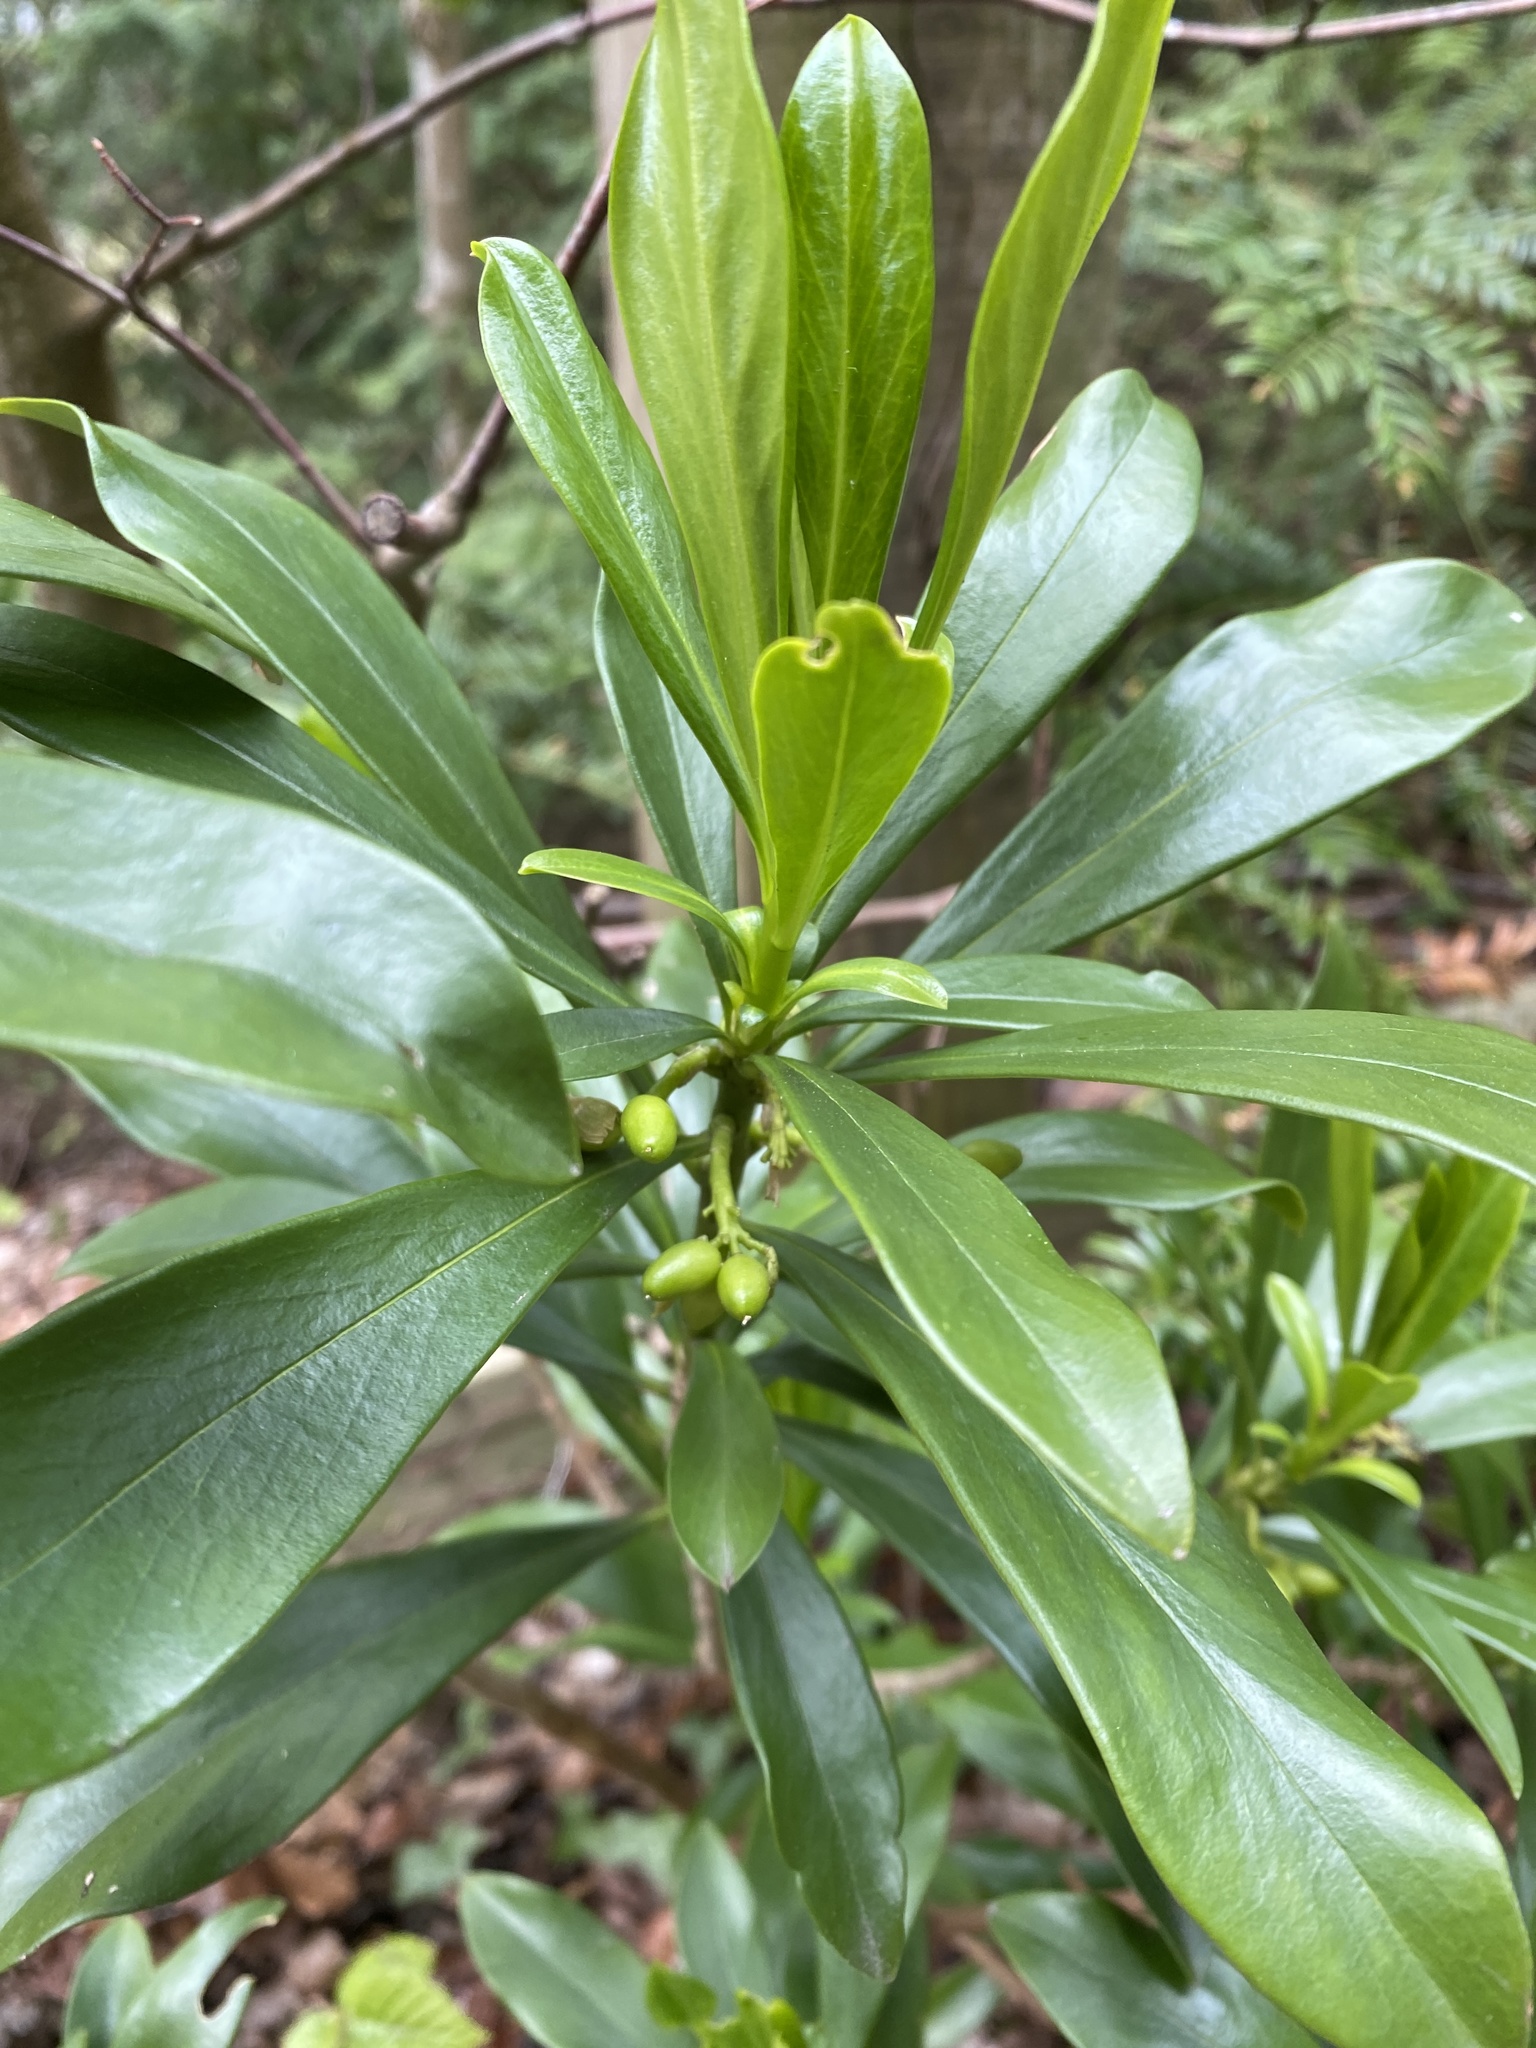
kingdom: Plantae
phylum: Tracheophyta
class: Magnoliopsida
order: Malvales
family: Thymelaeaceae
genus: Daphne
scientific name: Daphne laureola
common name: Spurge-laurel
